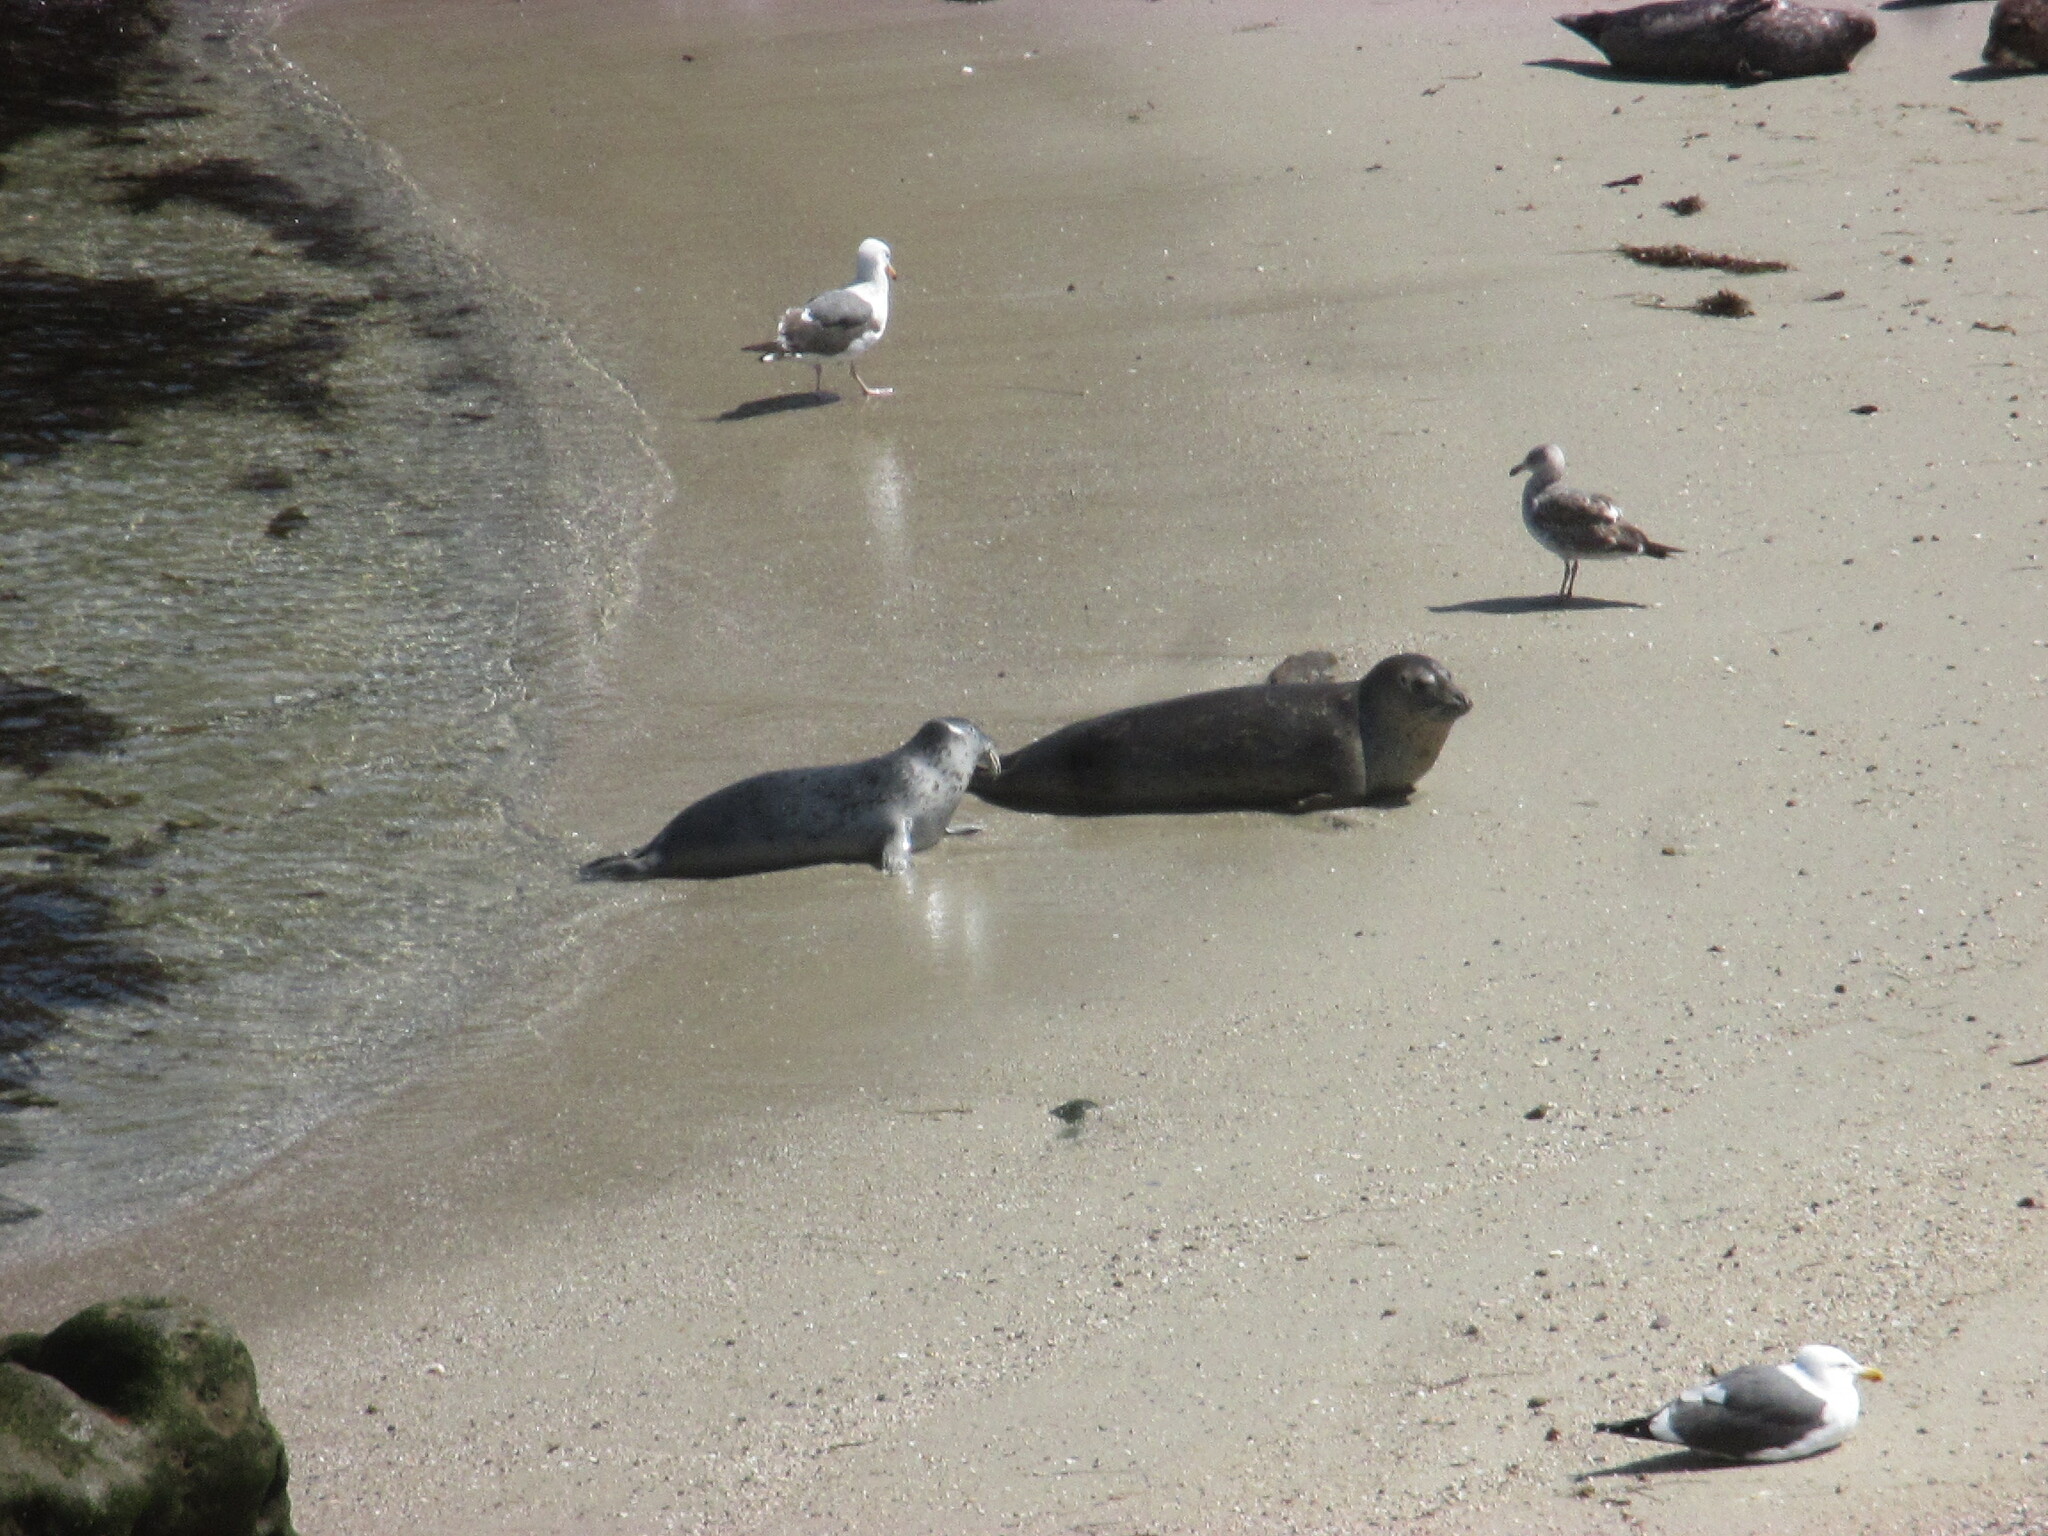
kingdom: Animalia
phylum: Chordata
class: Mammalia
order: Carnivora
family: Phocidae
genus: Phoca
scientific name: Phoca vitulina
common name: Harbor seal
